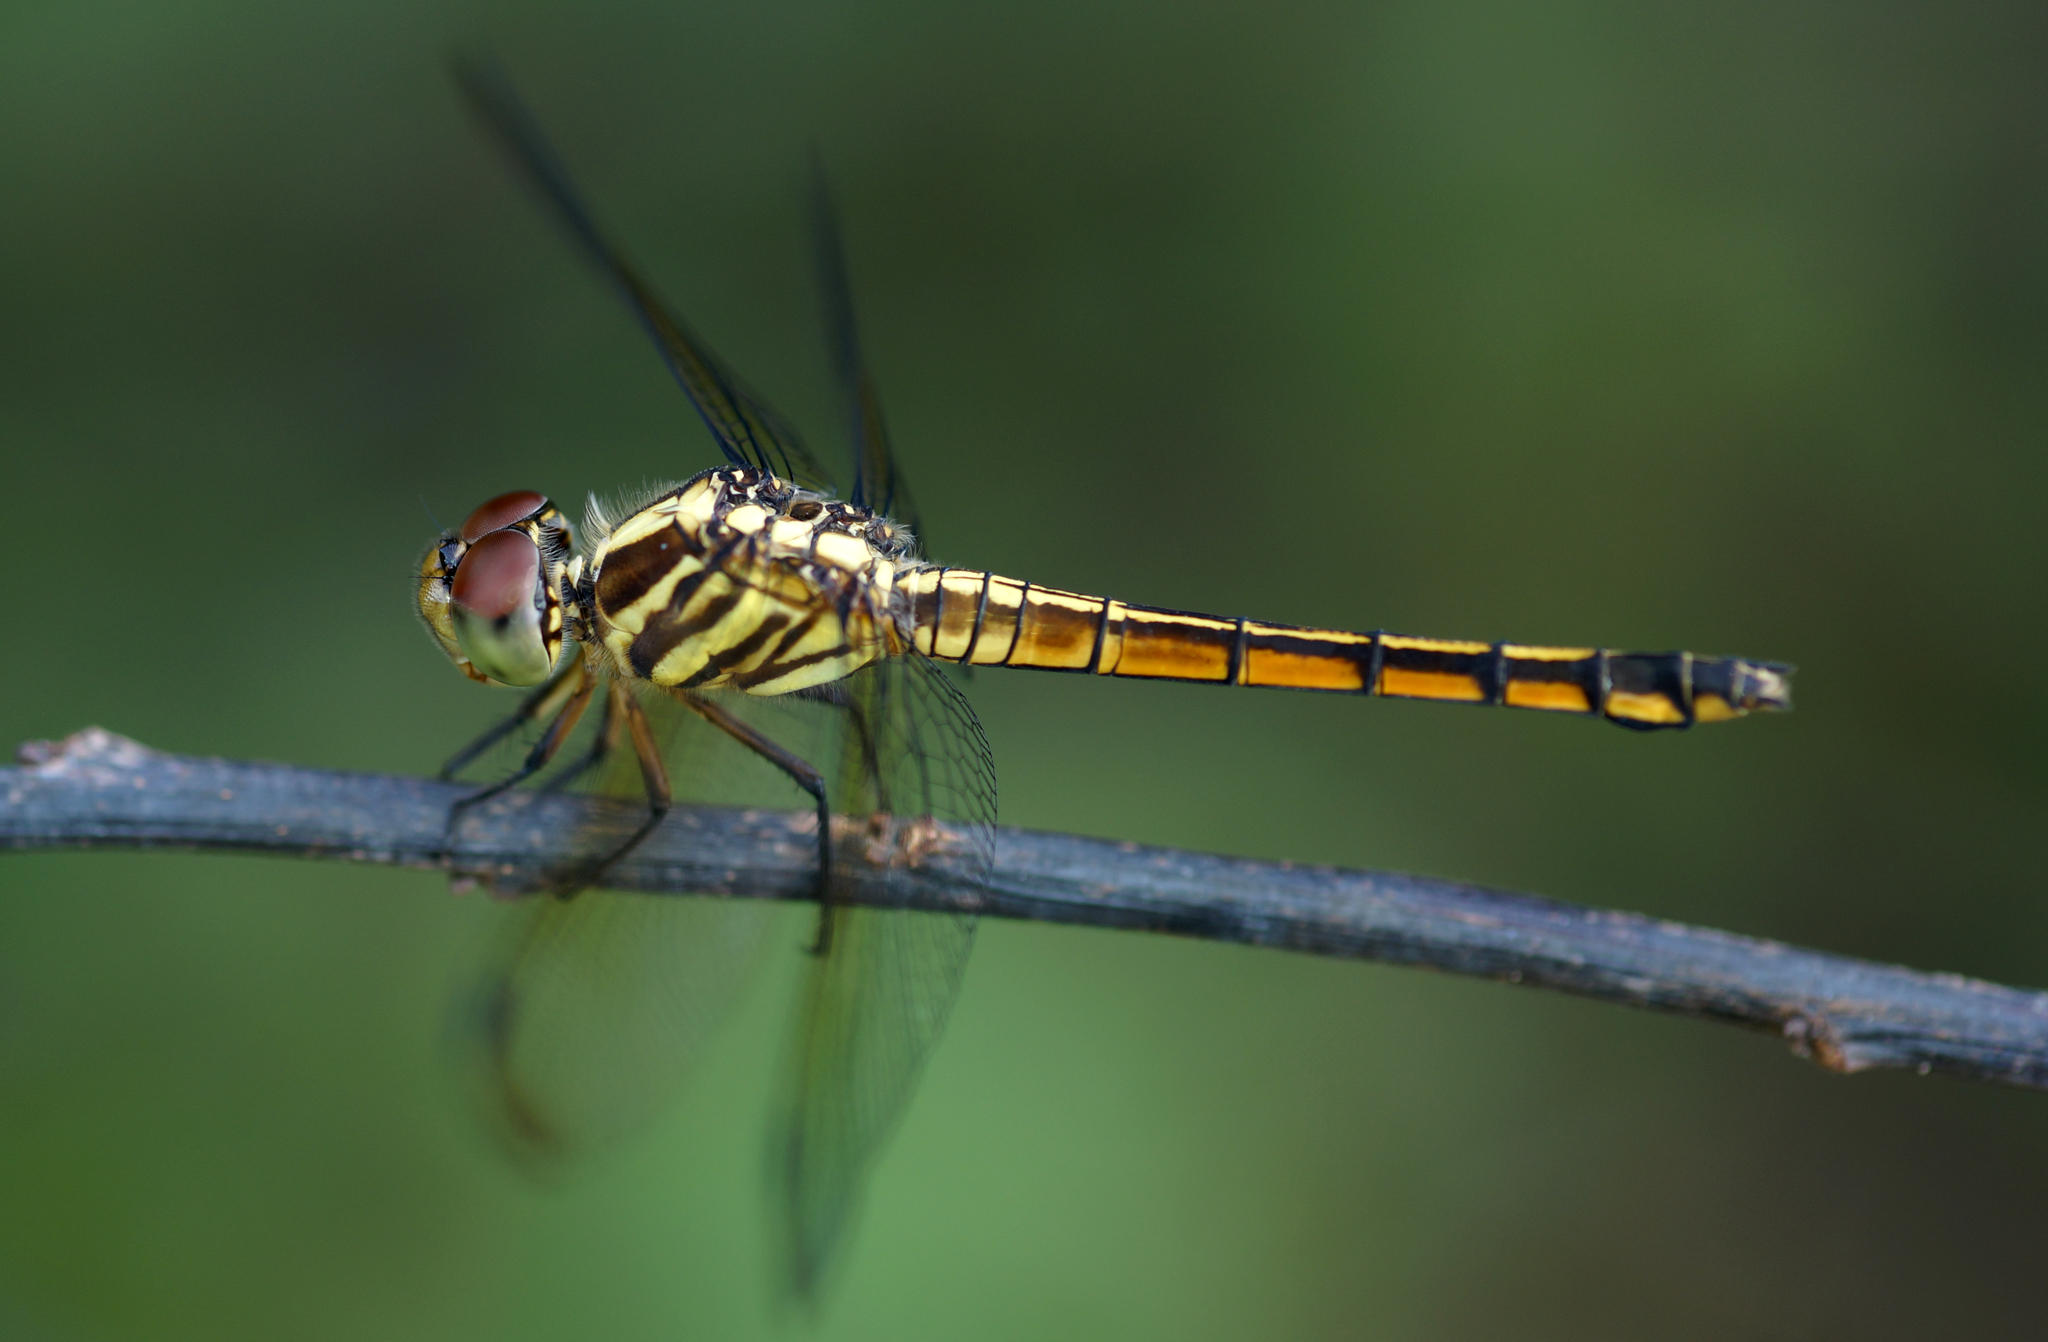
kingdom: Animalia
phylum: Arthropoda
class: Insecta
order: Odonata
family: Libellulidae
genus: Potamarcha
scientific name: Potamarcha congener
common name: Blue chaser
